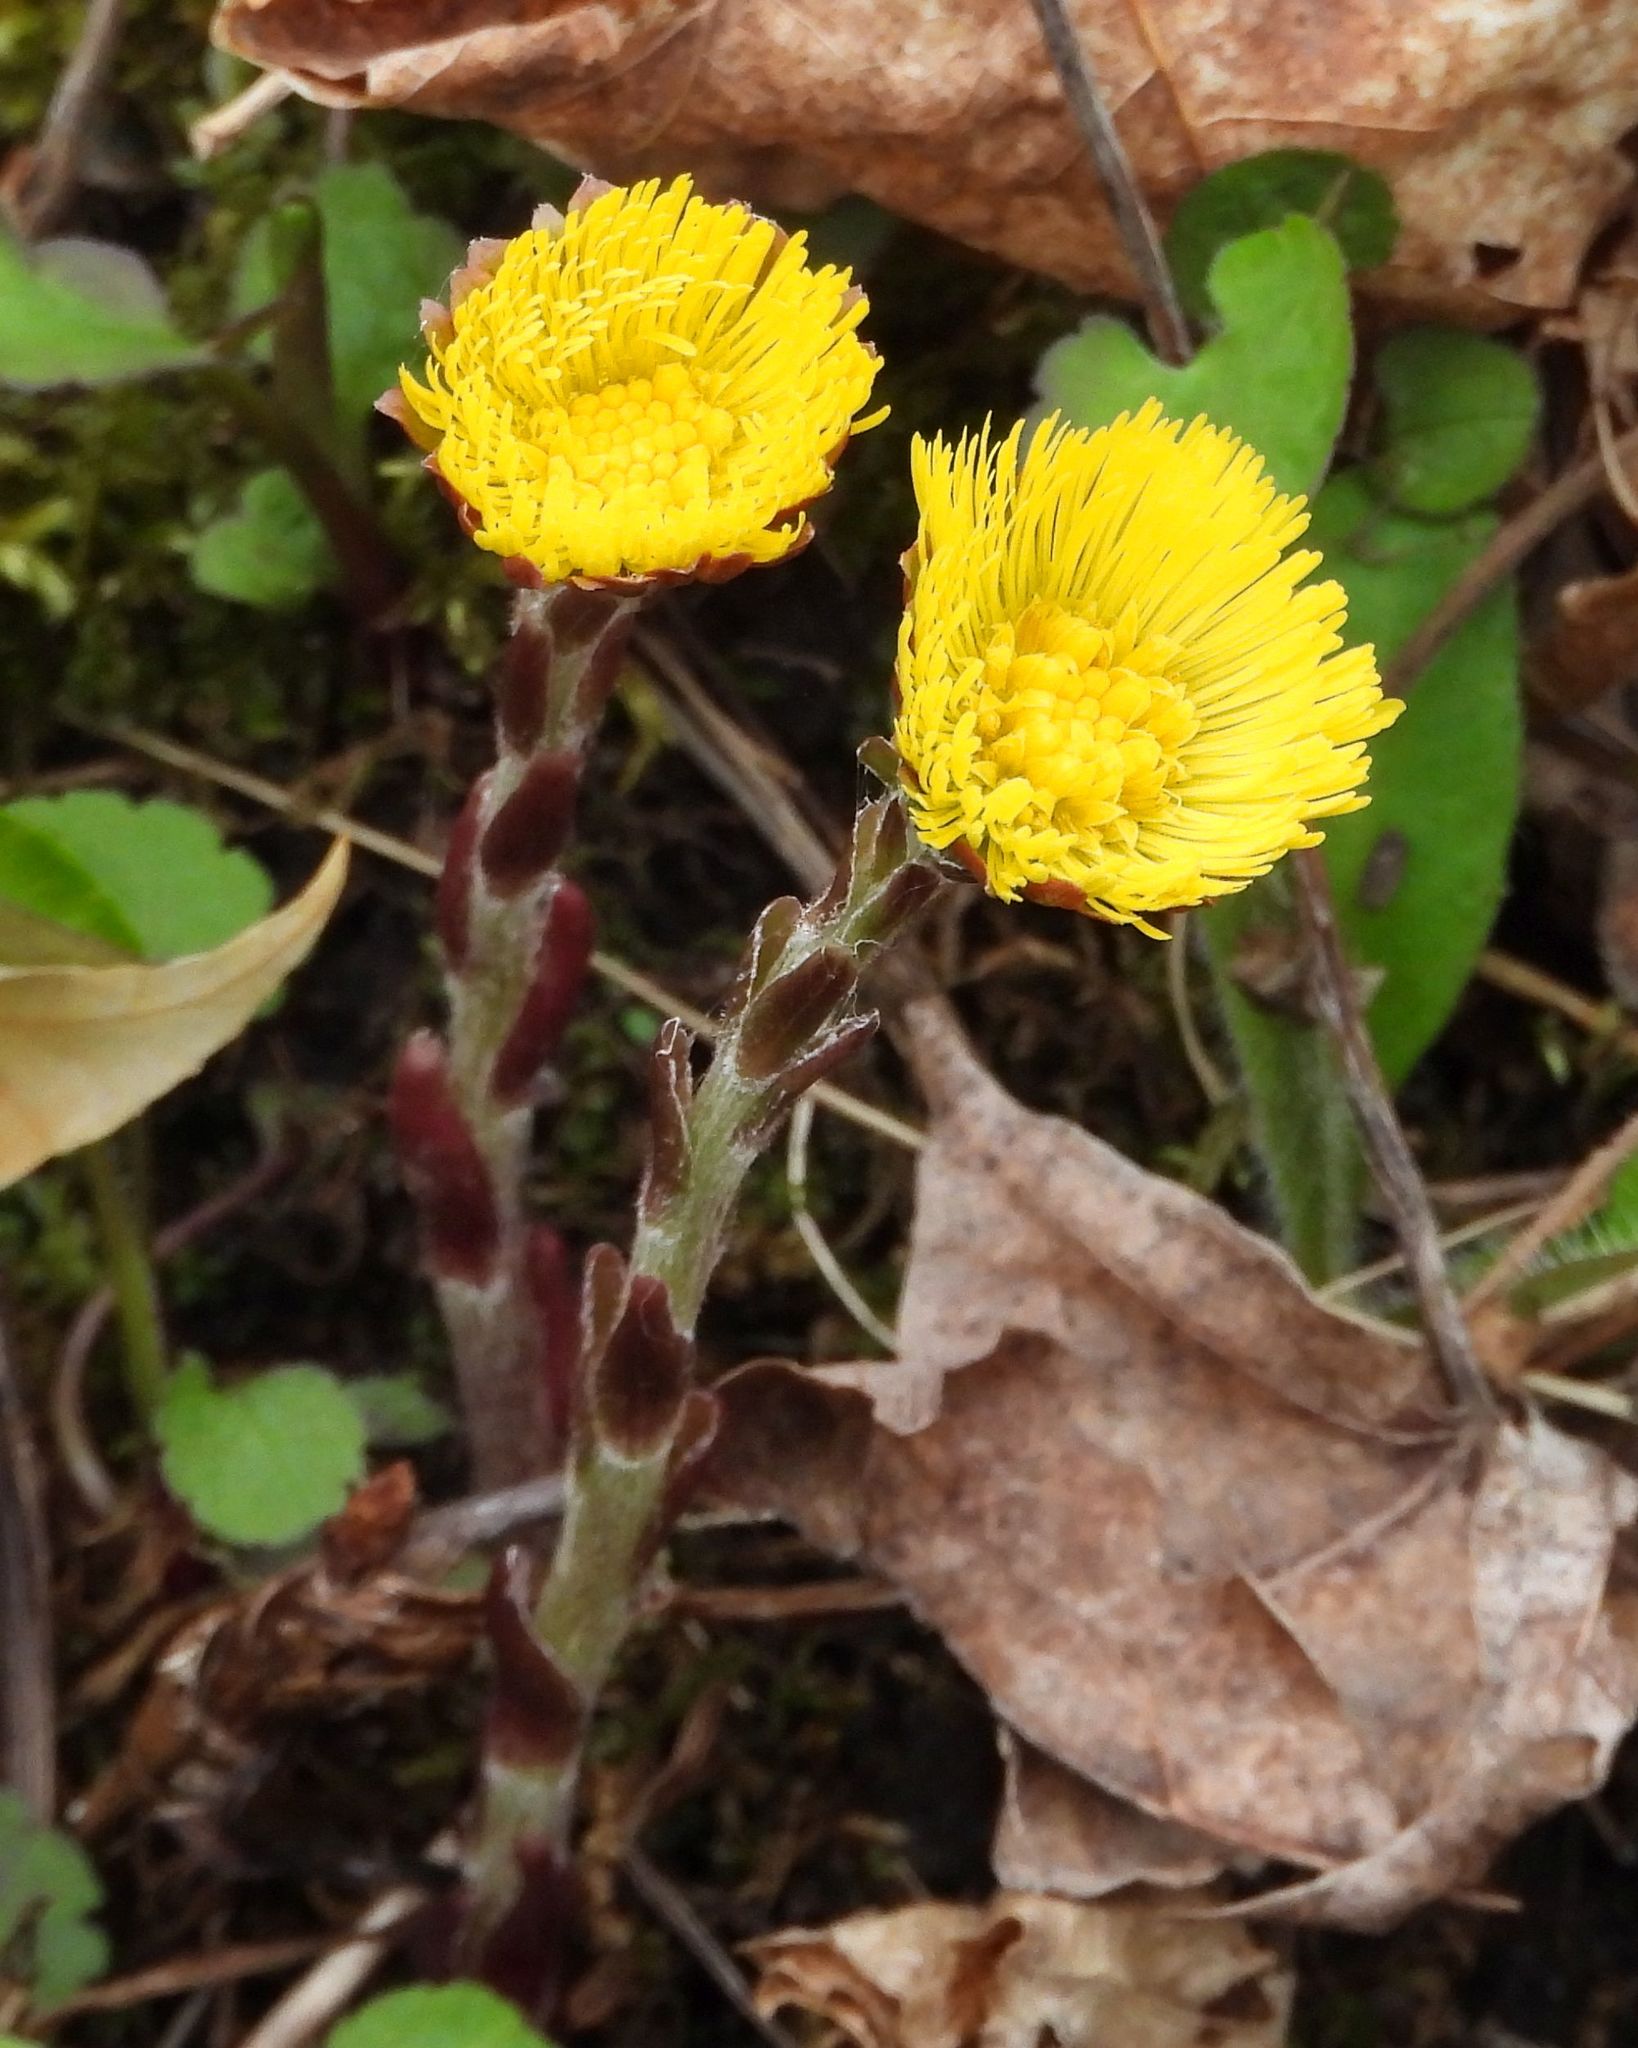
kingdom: Plantae
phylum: Tracheophyta
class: Magnoliopsida
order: Asterales
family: Asteraceae
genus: Tussilago
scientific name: Tussilago farfara
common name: Coltsfoot
